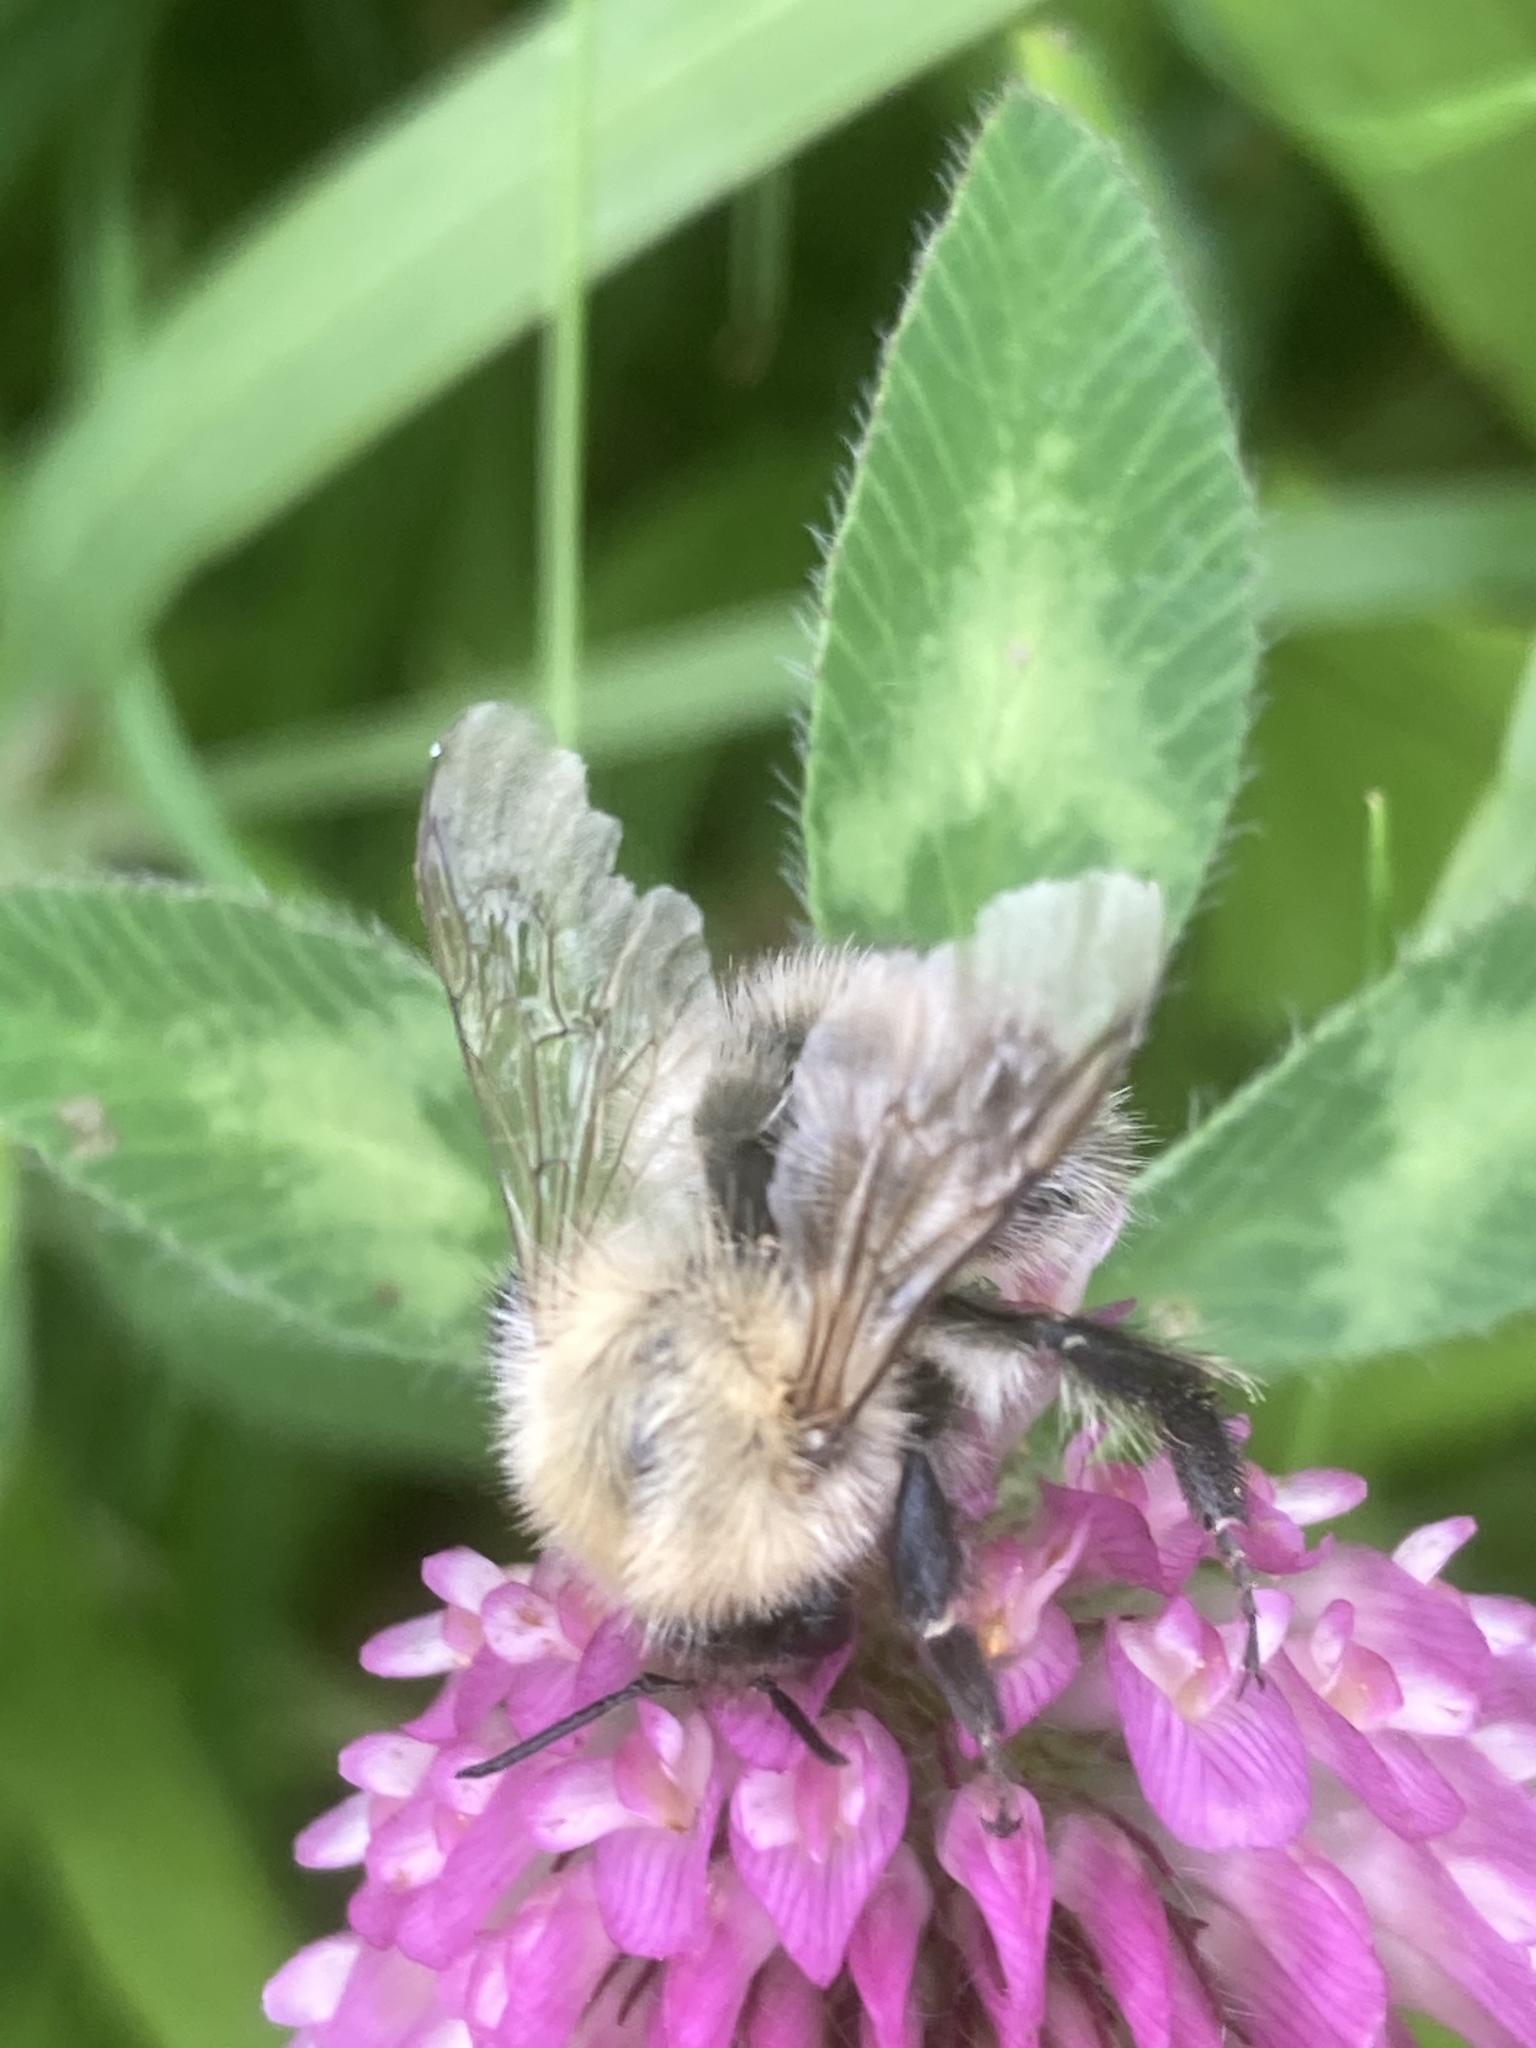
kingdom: Animalia
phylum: Arthropoda
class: Insecta
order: Hymenoptera
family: Apidae
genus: Bombus
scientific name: Bombus pascuorum
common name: Common carder bee
